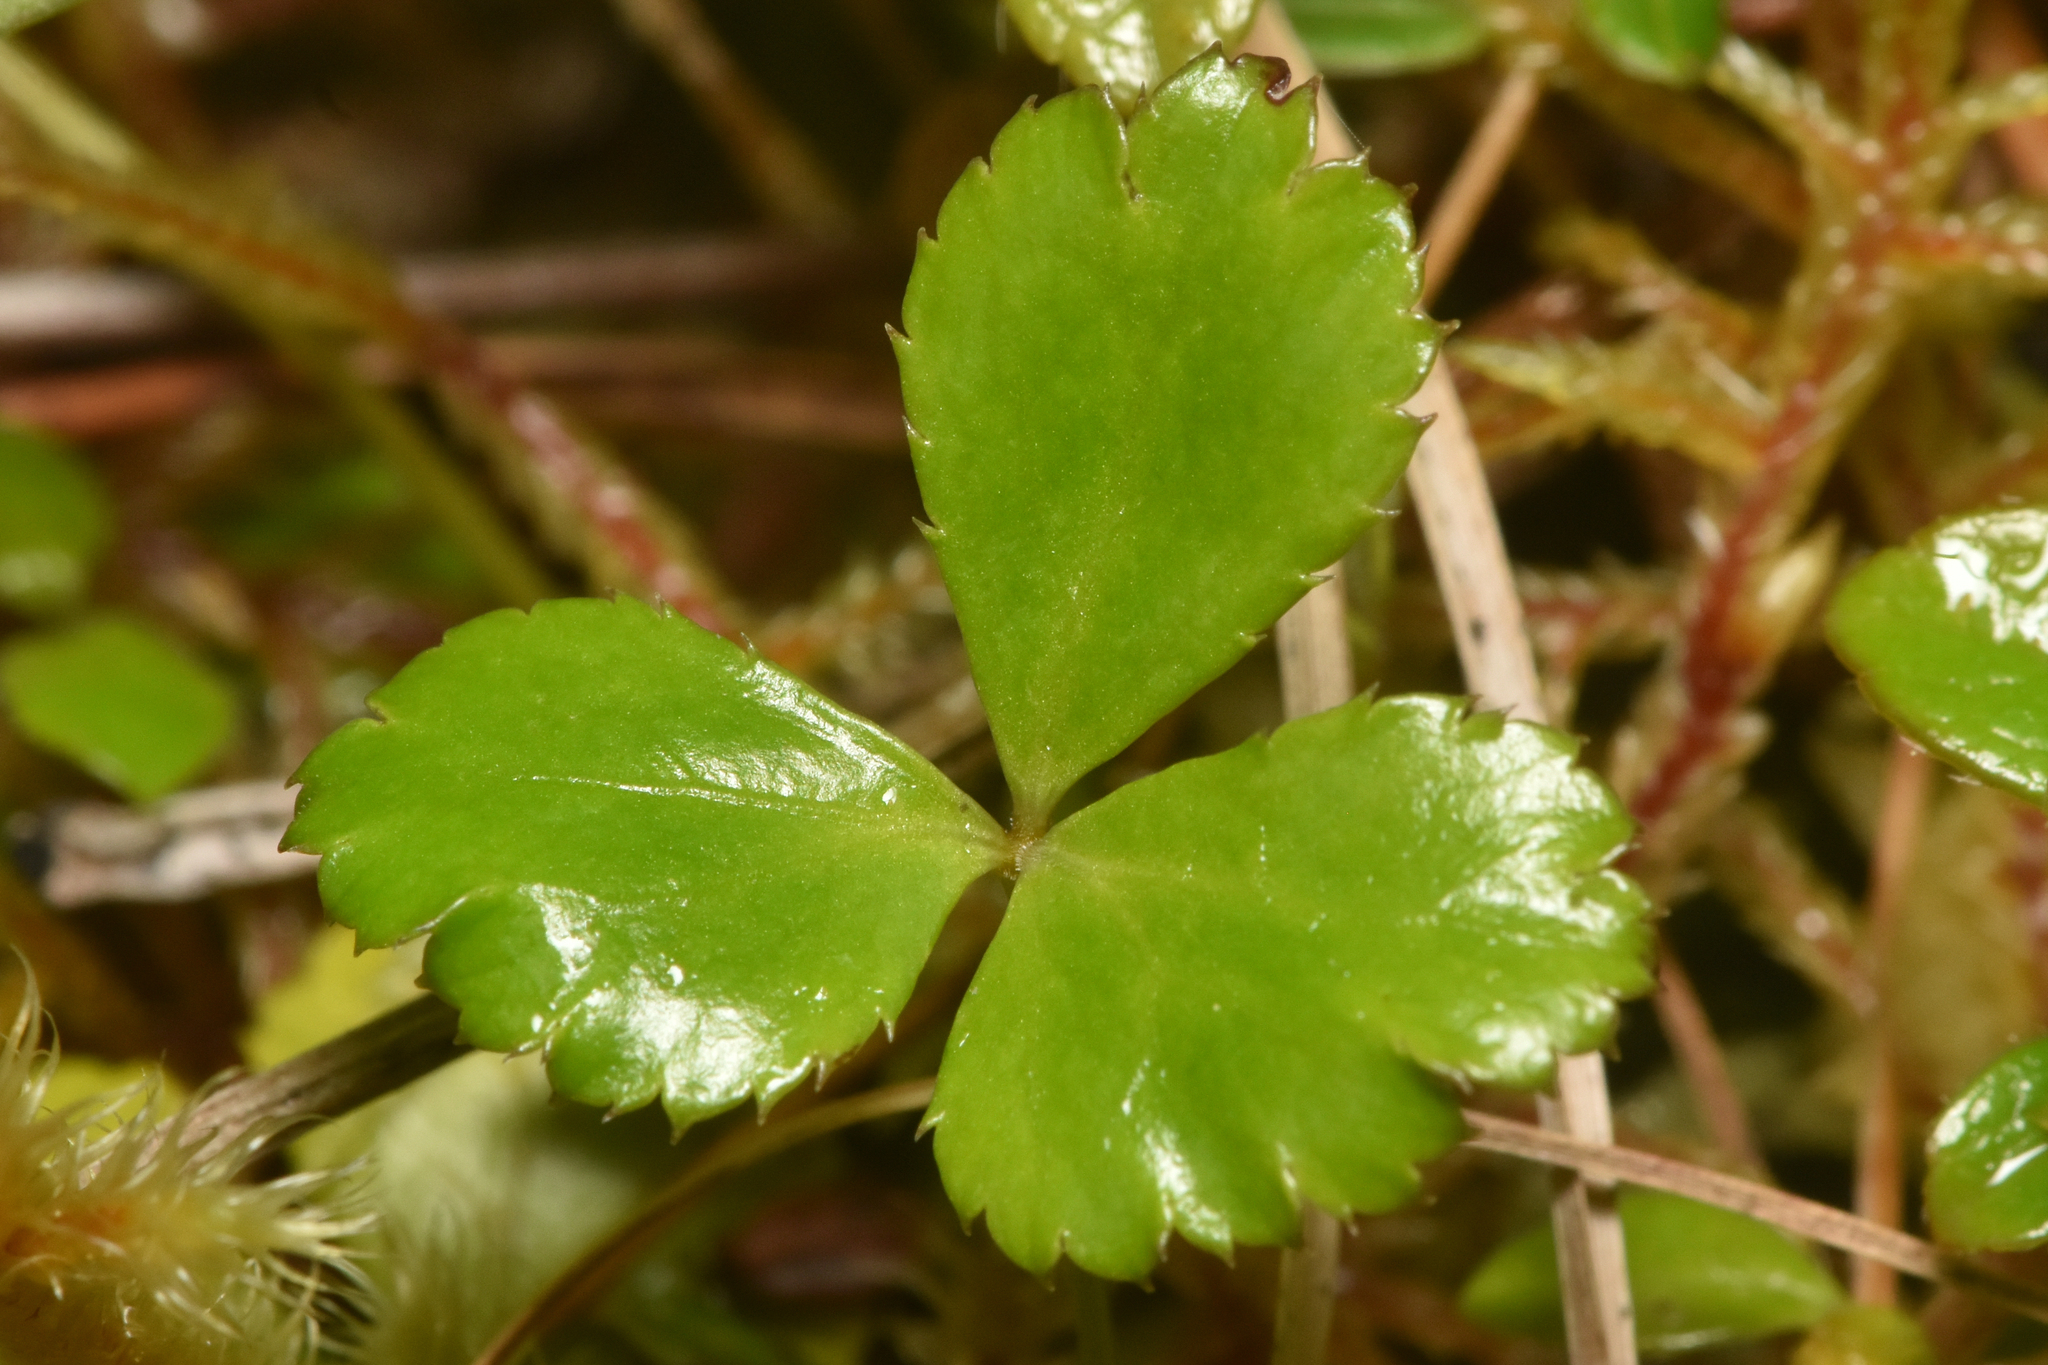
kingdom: Plantae
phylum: Tracheophyta
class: Magnoliopsida
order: Ranunculales
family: Ranunculaceae
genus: Coptis
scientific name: Coptis trifolia
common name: Canker-root
